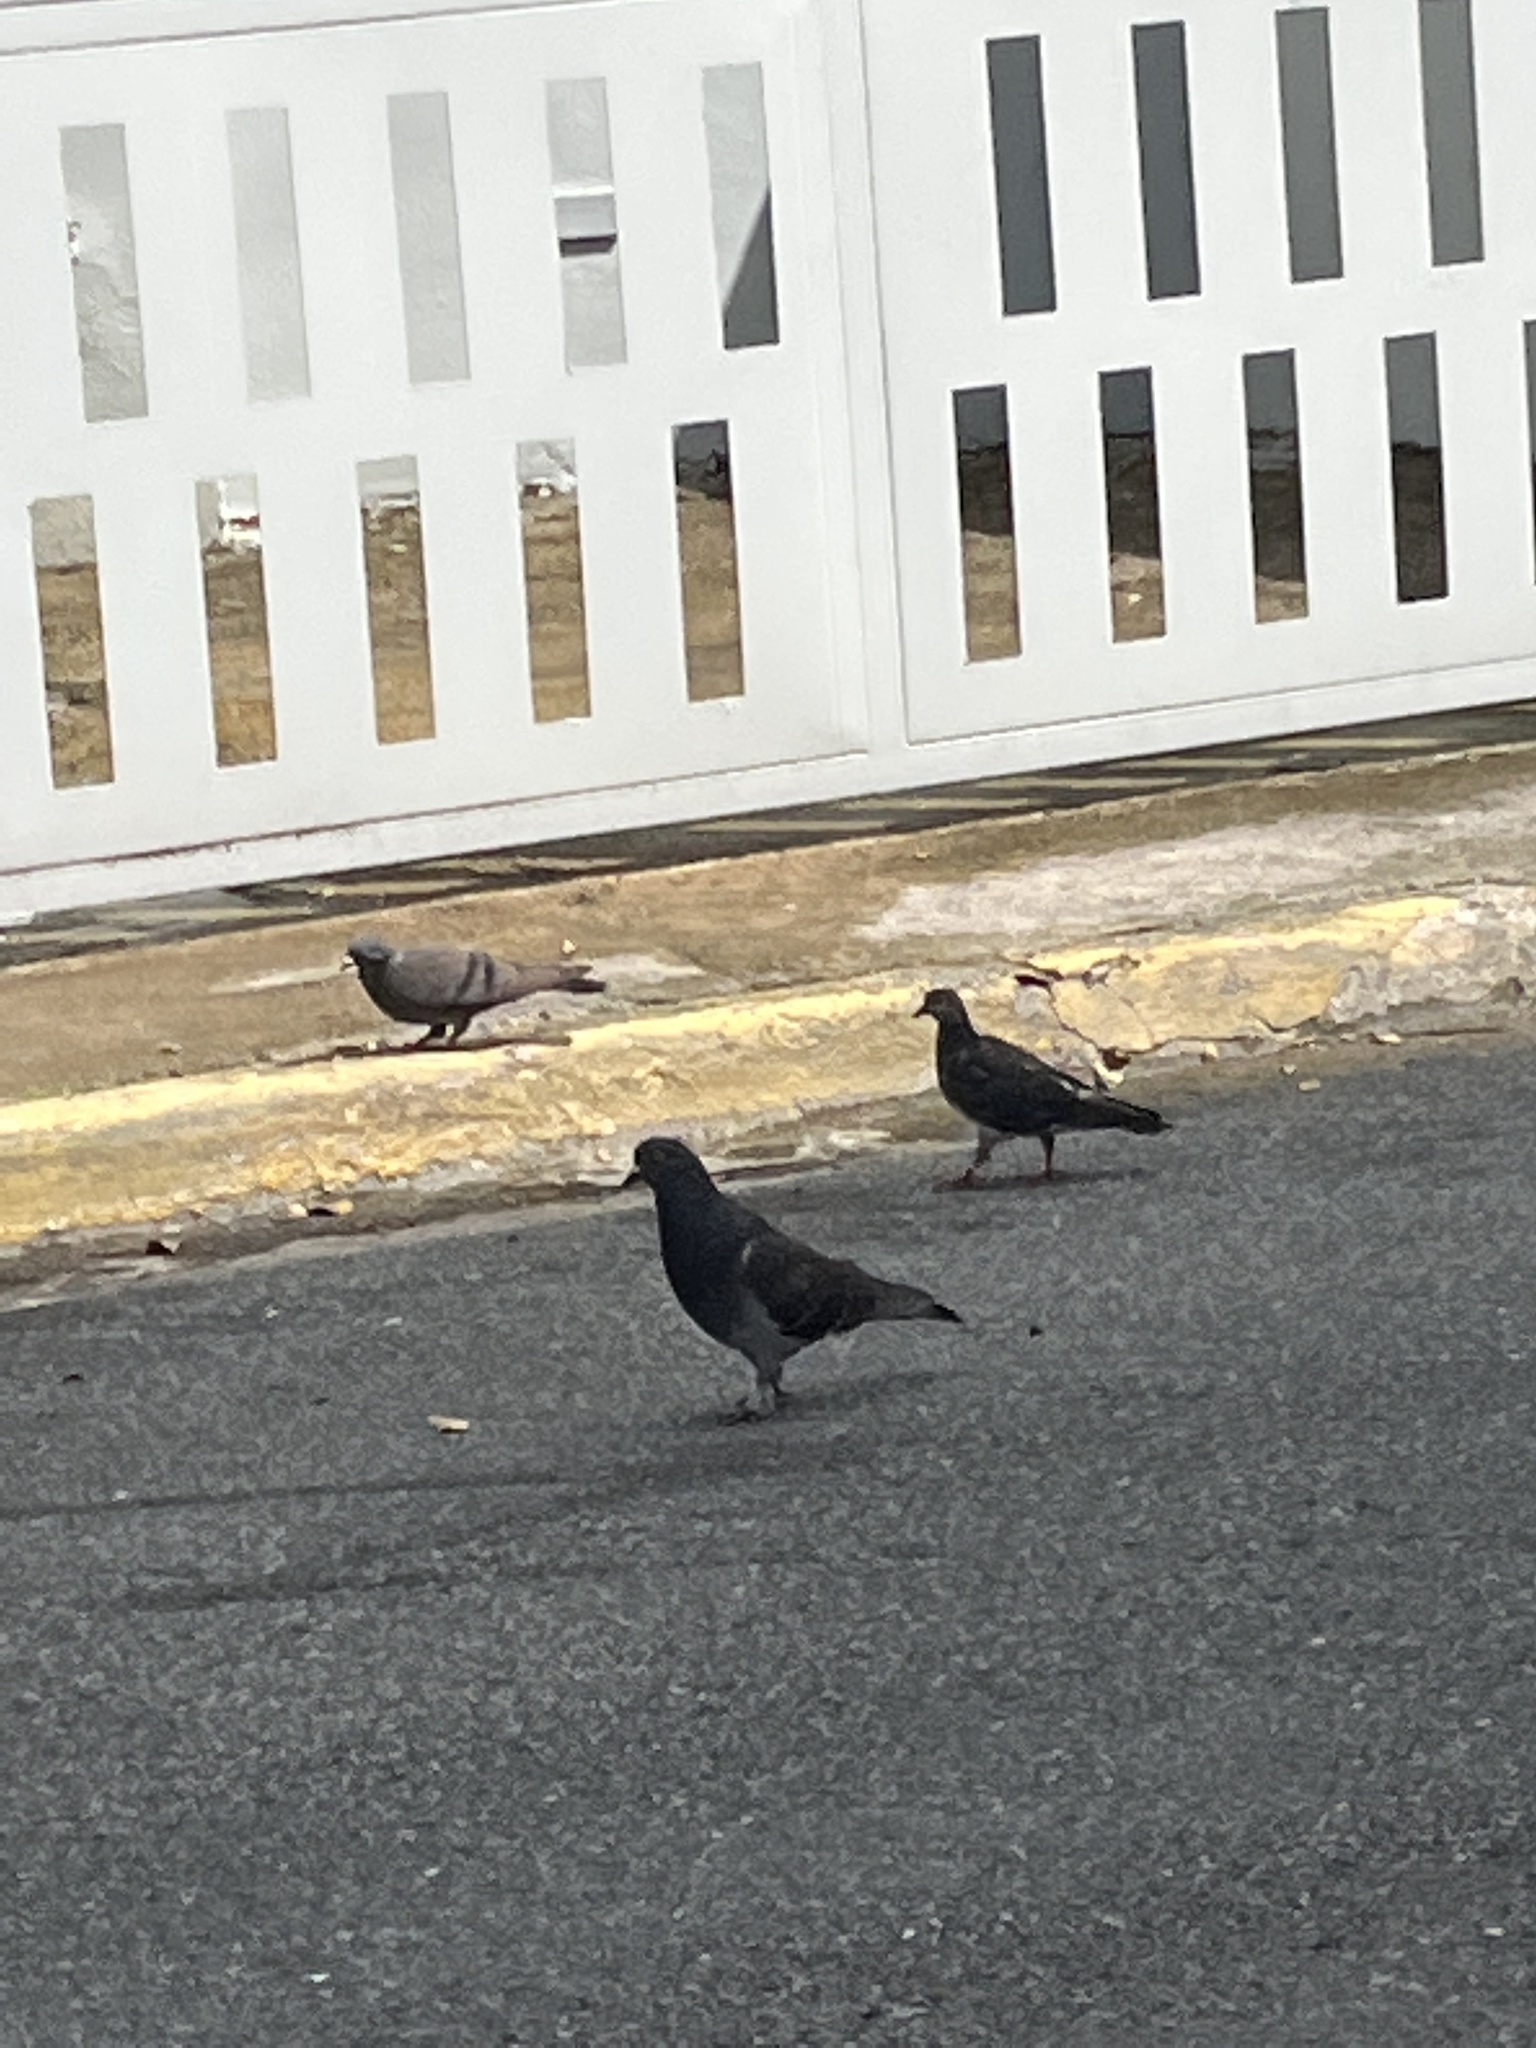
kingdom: Animalia
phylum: Chordata
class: Aves
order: Columbiformes
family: Columbidae
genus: Columba
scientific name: Columba livia
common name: Rock pigeon
